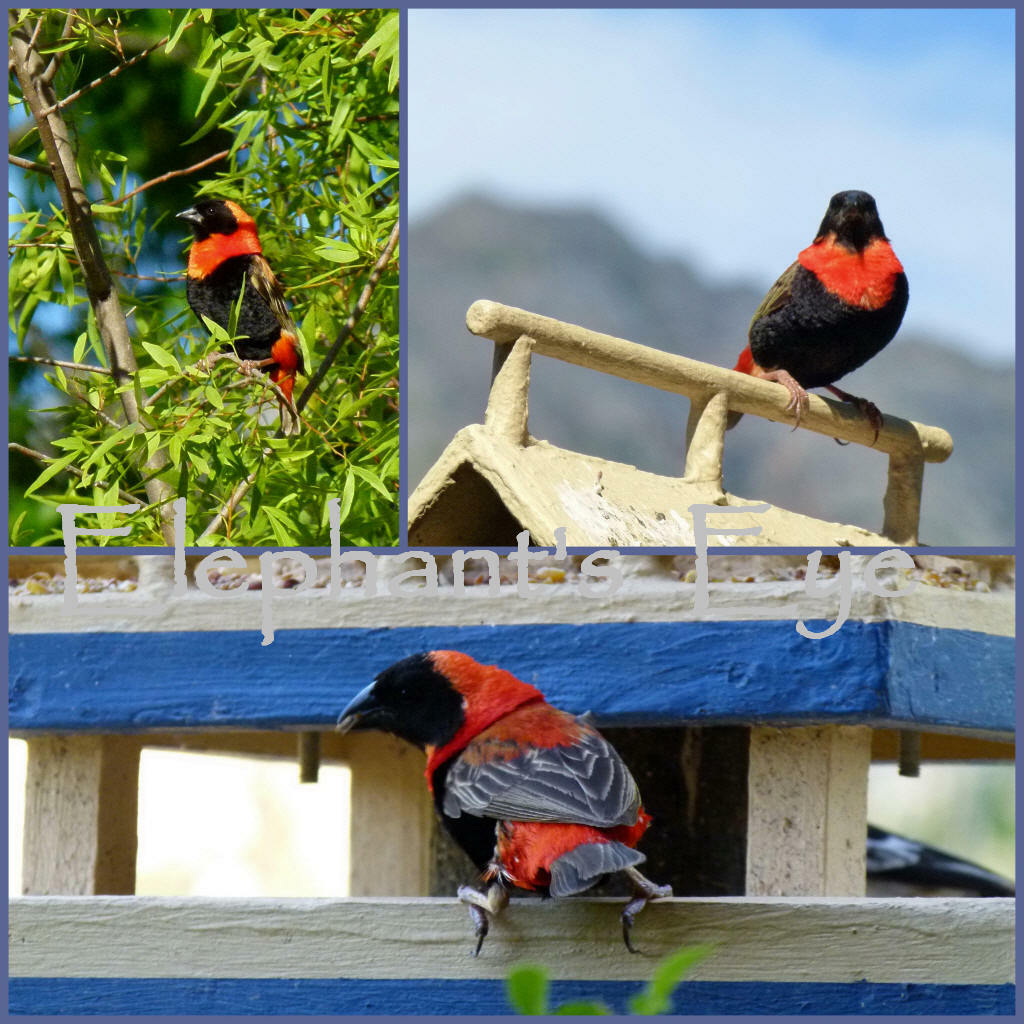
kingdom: Animalia
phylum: Chordata
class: Aves
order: Passeriformes
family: Ploceidae
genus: Euplectes
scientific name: Euplectes orix
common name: Southern red bishop
